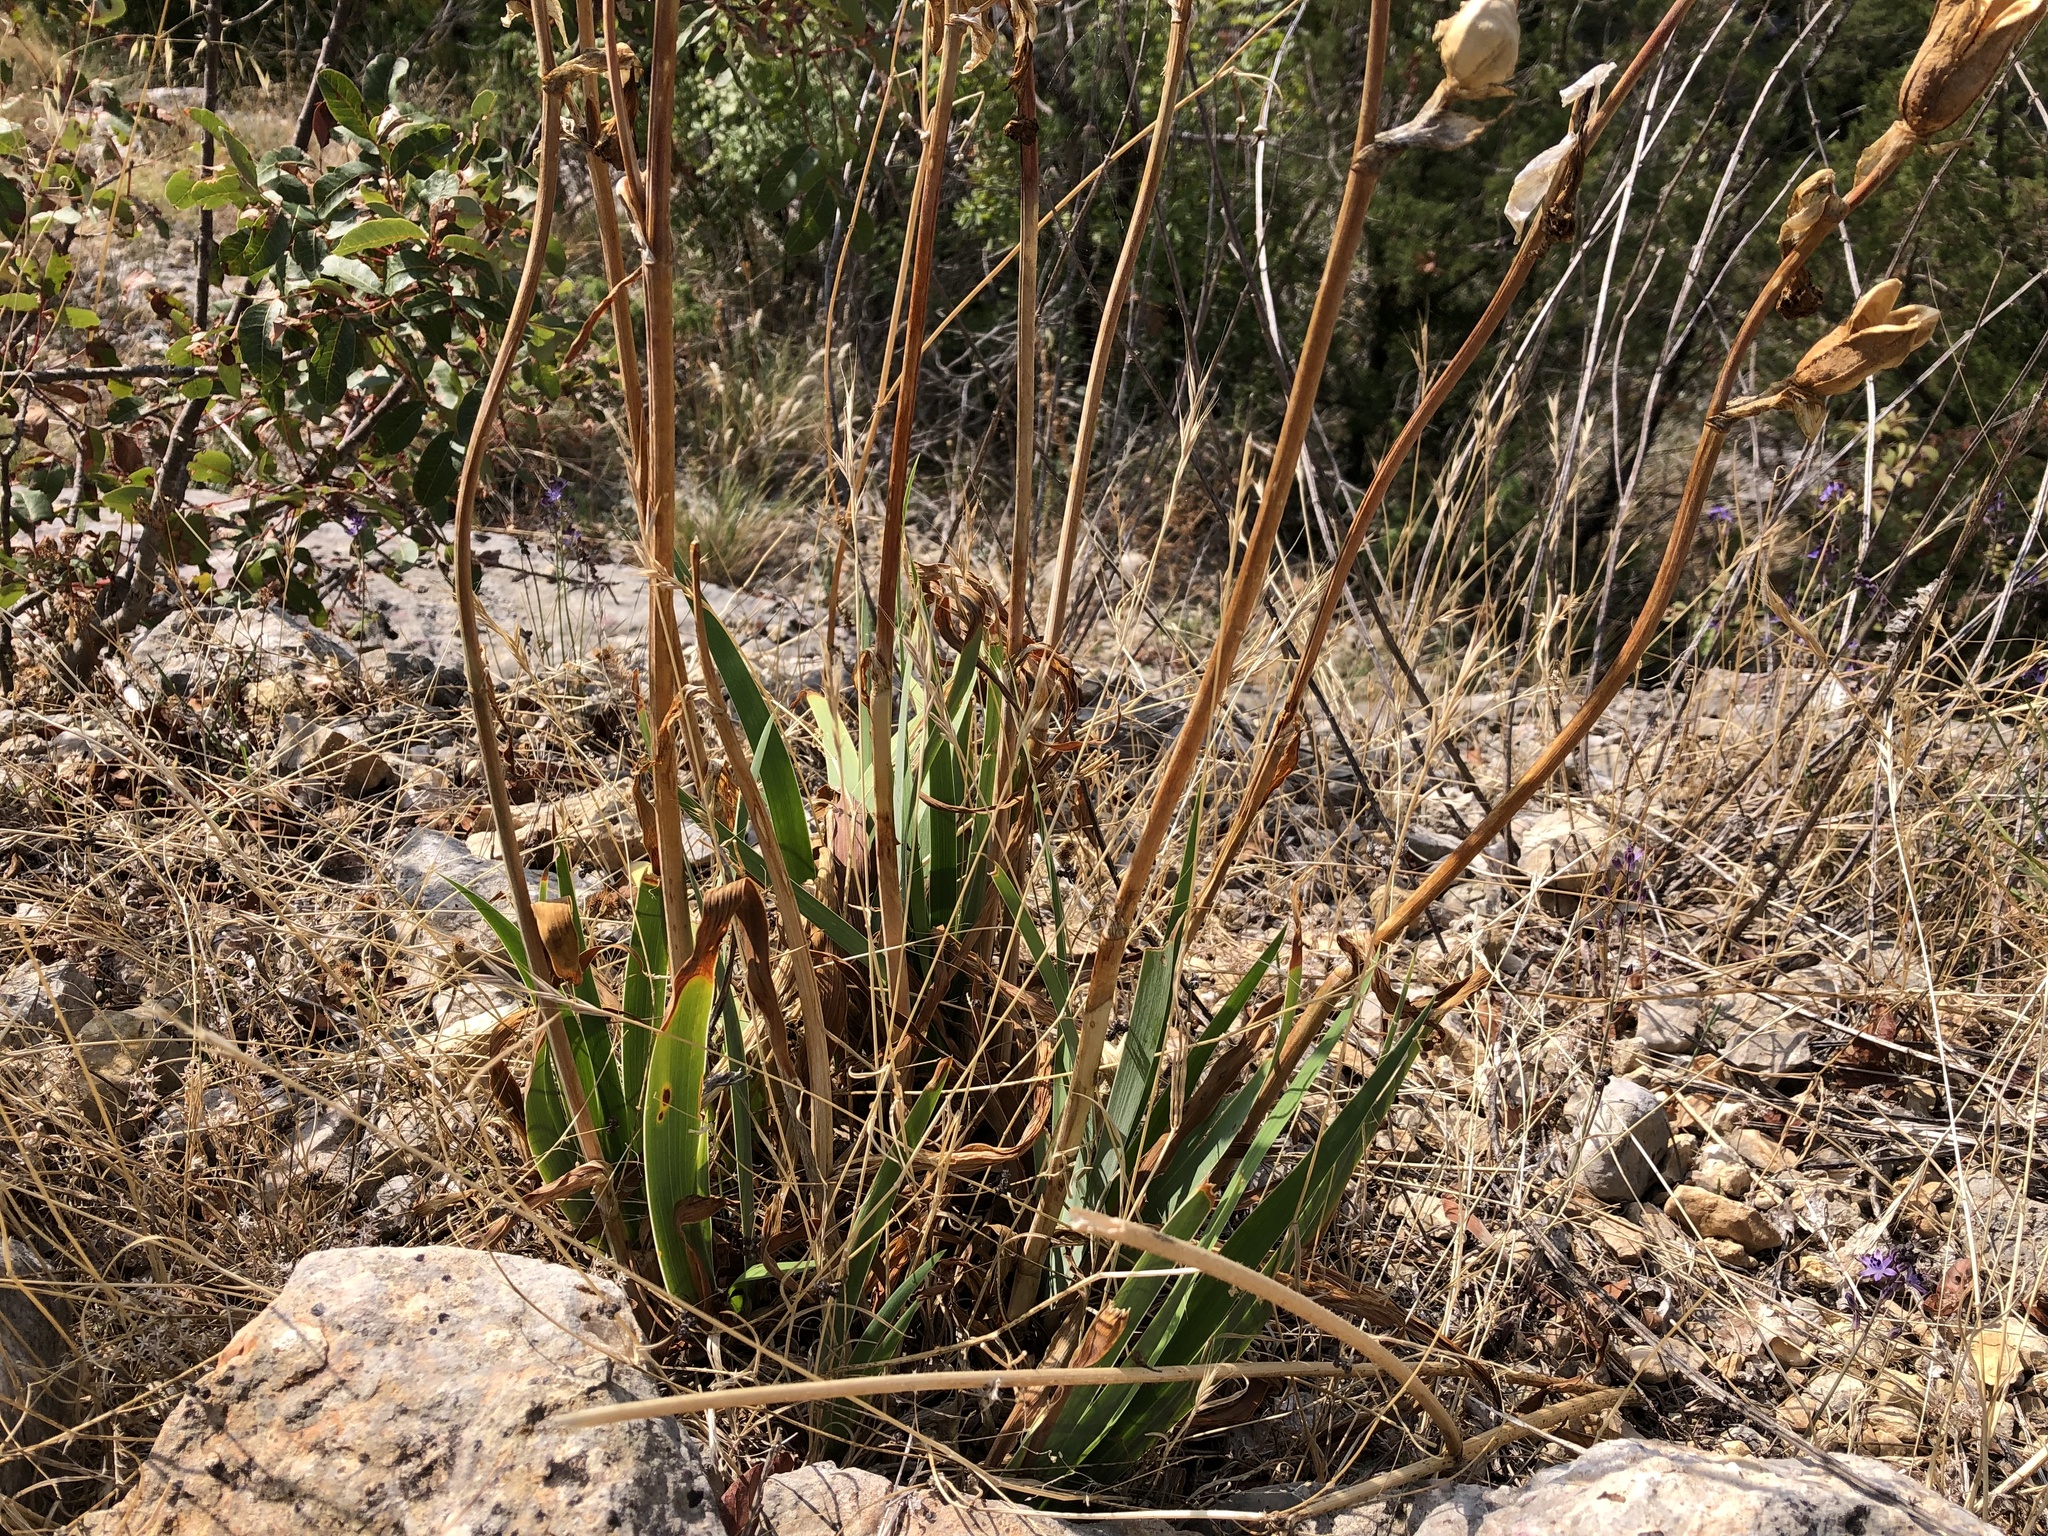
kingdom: Plantae
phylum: Tracheophyta
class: Liliopsida
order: Asparagales
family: Iridaceae
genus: Iris
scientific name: Iris pallida
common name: Sweet iris
